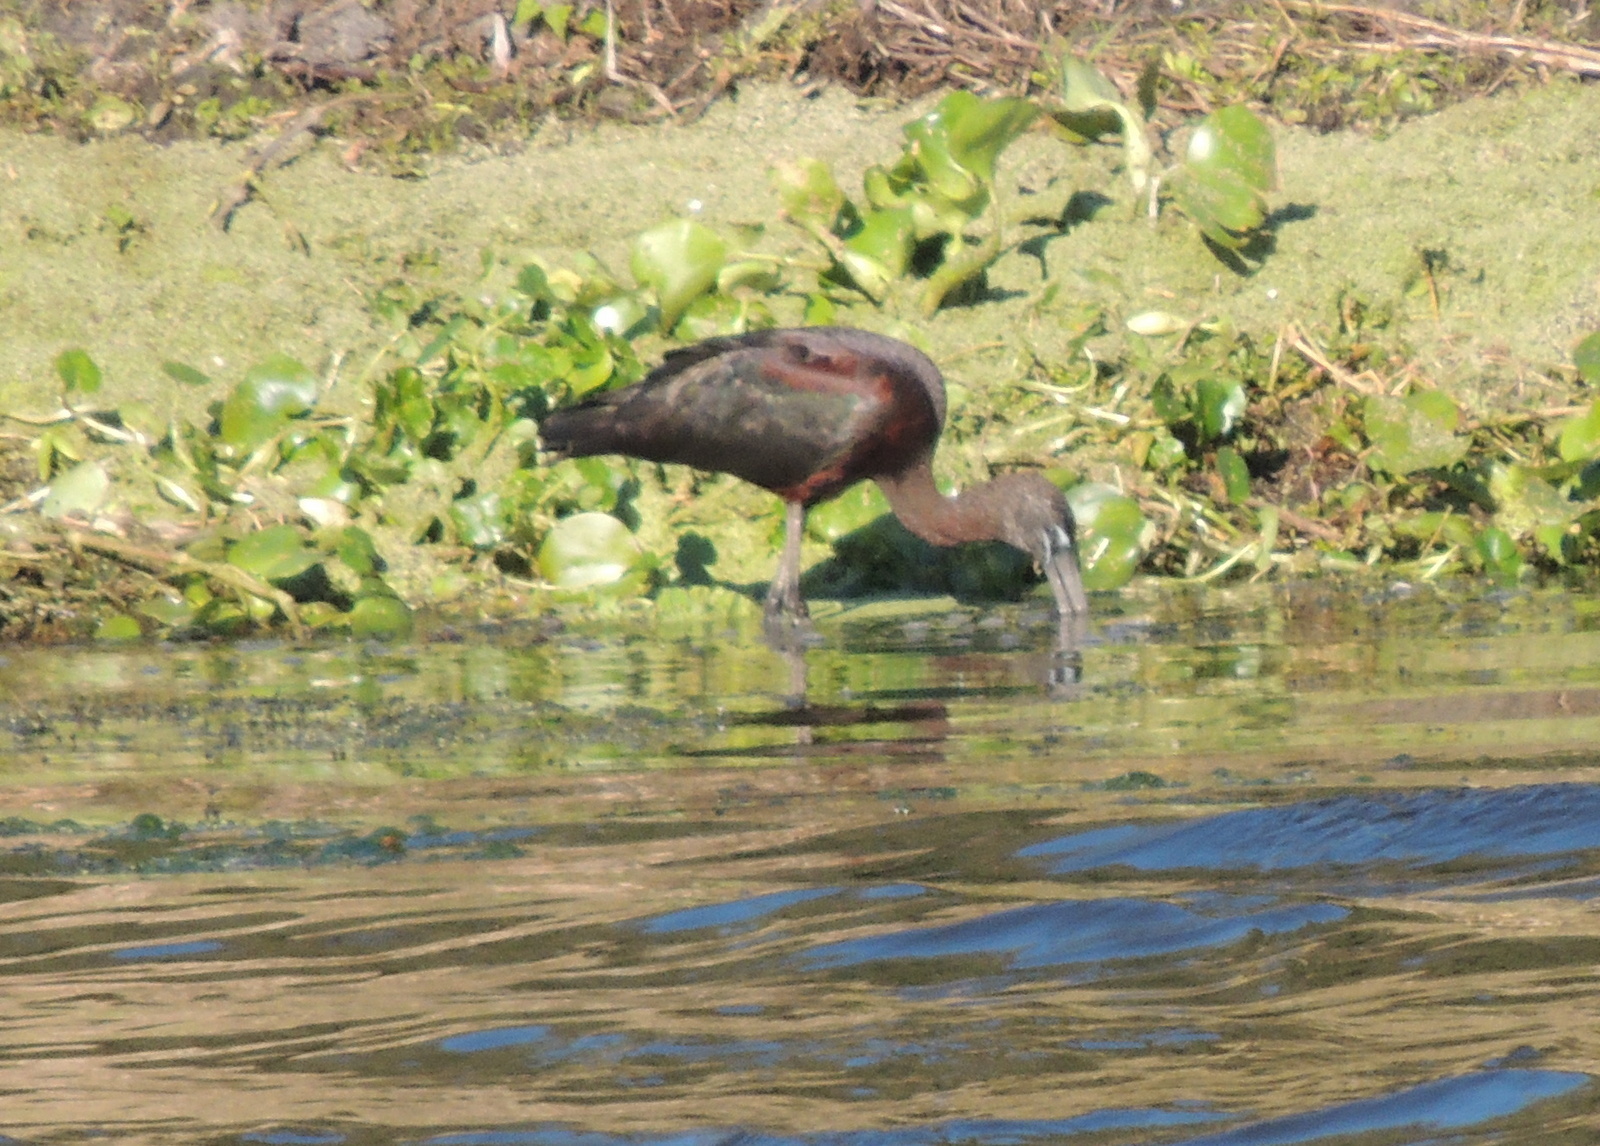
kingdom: Animalia
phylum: Chordata
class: Aves
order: Pelecaniformes
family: Threskiornithidae
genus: Plegadis
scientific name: Plegadis falcinellus
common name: Glossy ibis
